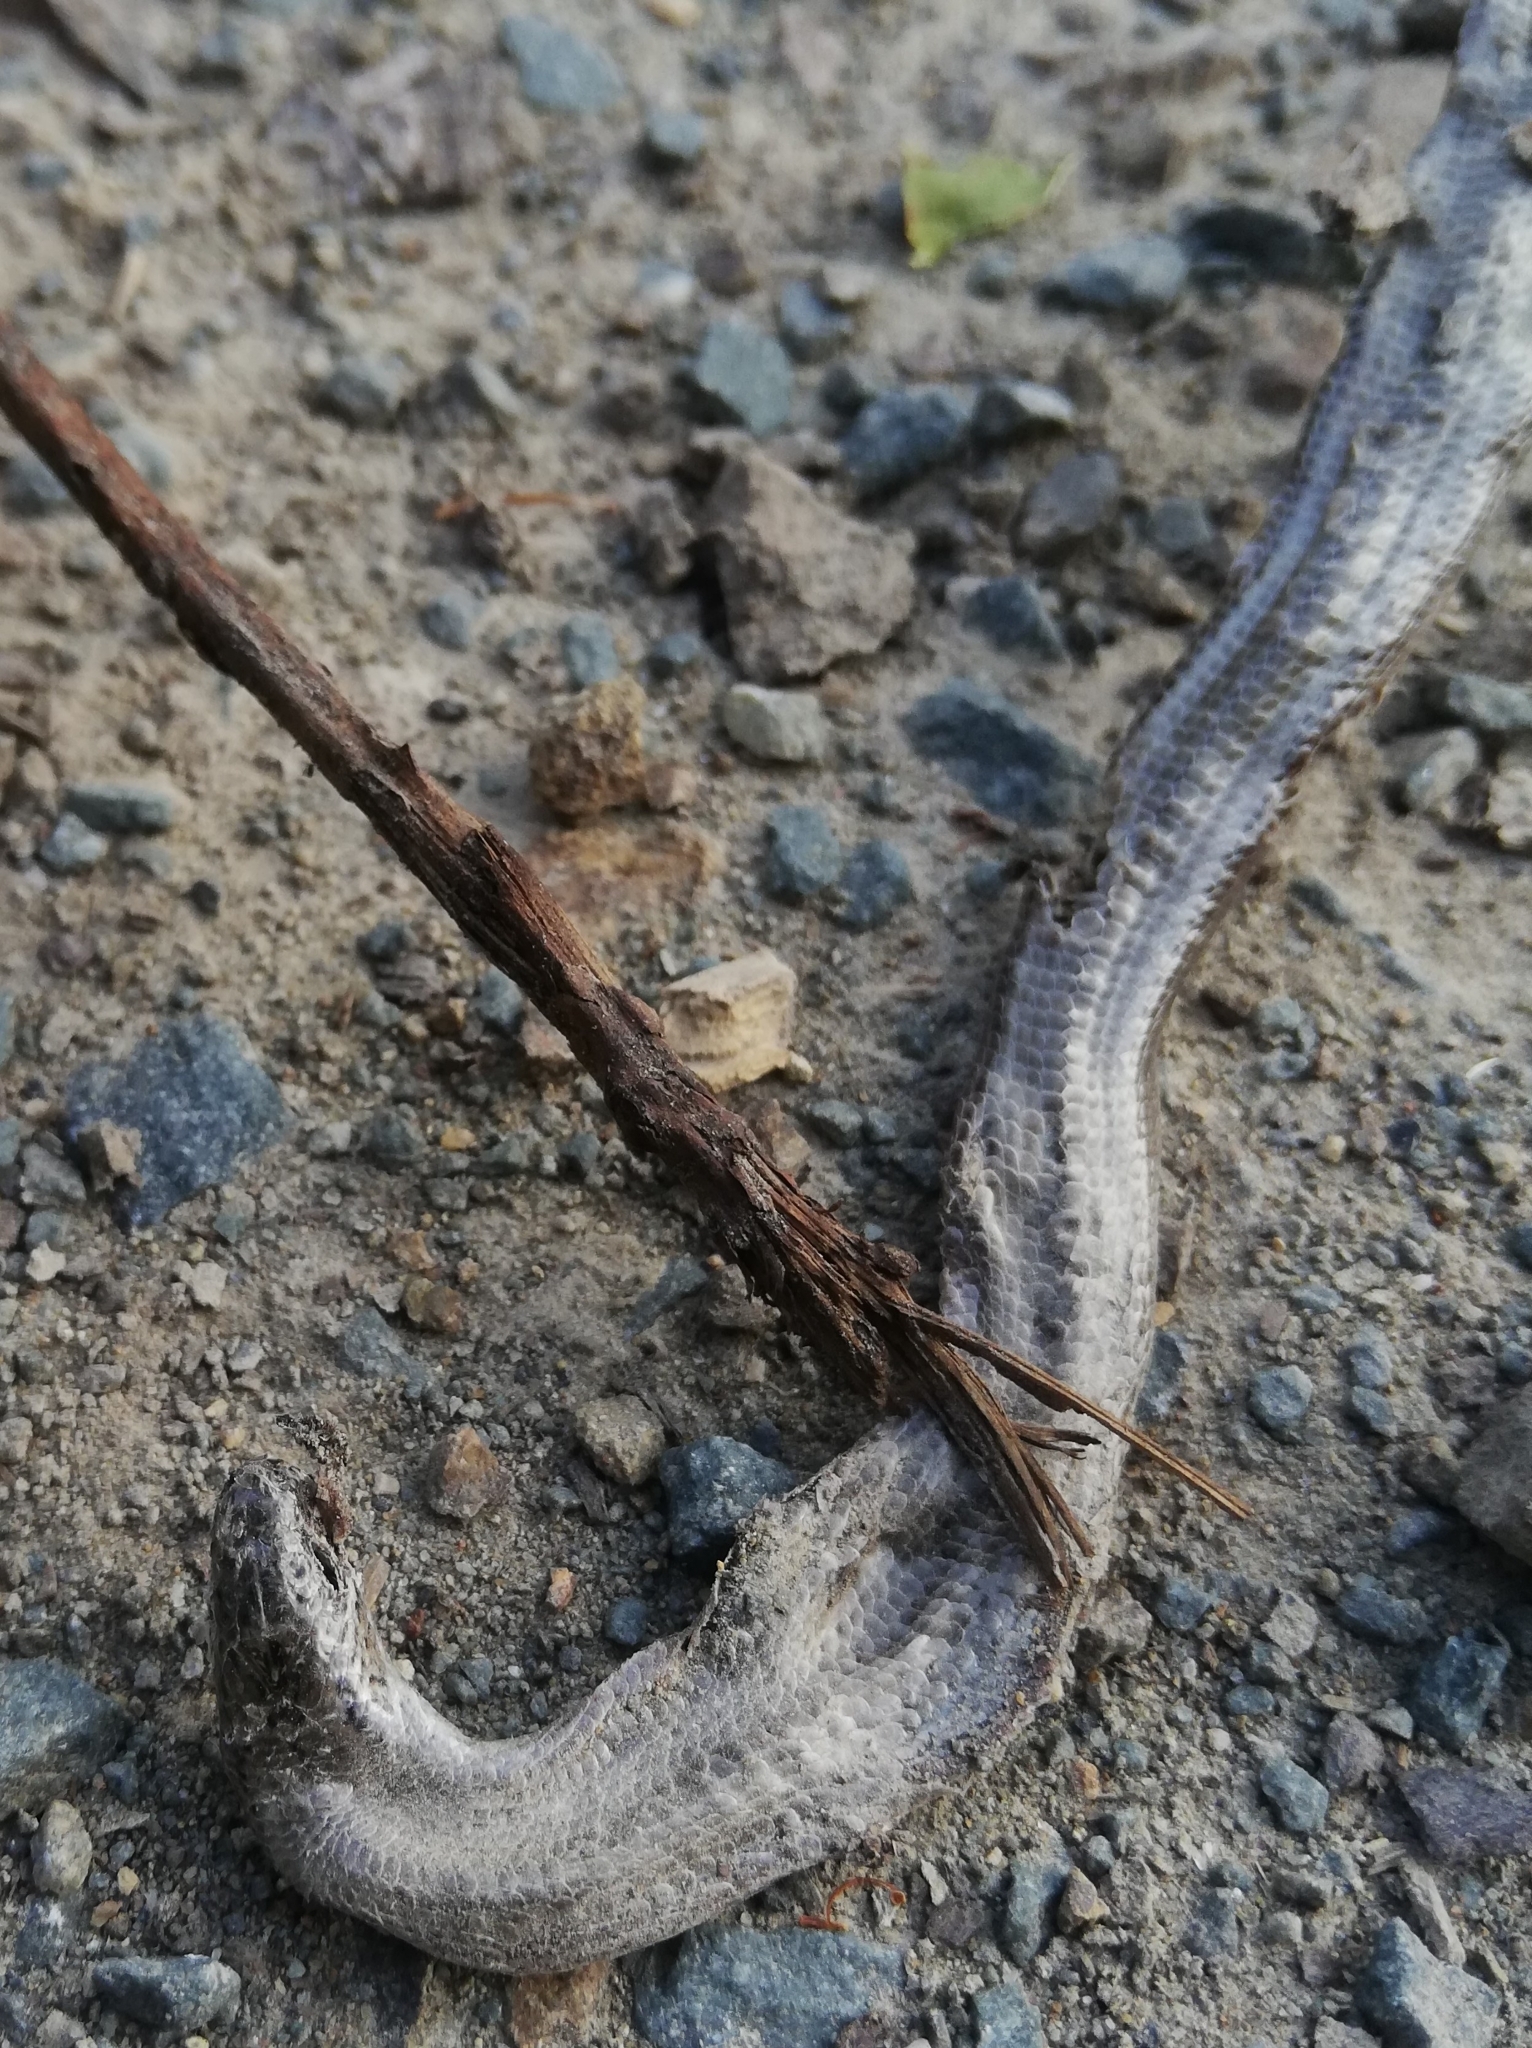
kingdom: Animalia
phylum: Chordata
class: Squamata
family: Anguidae
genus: Anguis
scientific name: Anguis fragilis
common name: Slow worm
